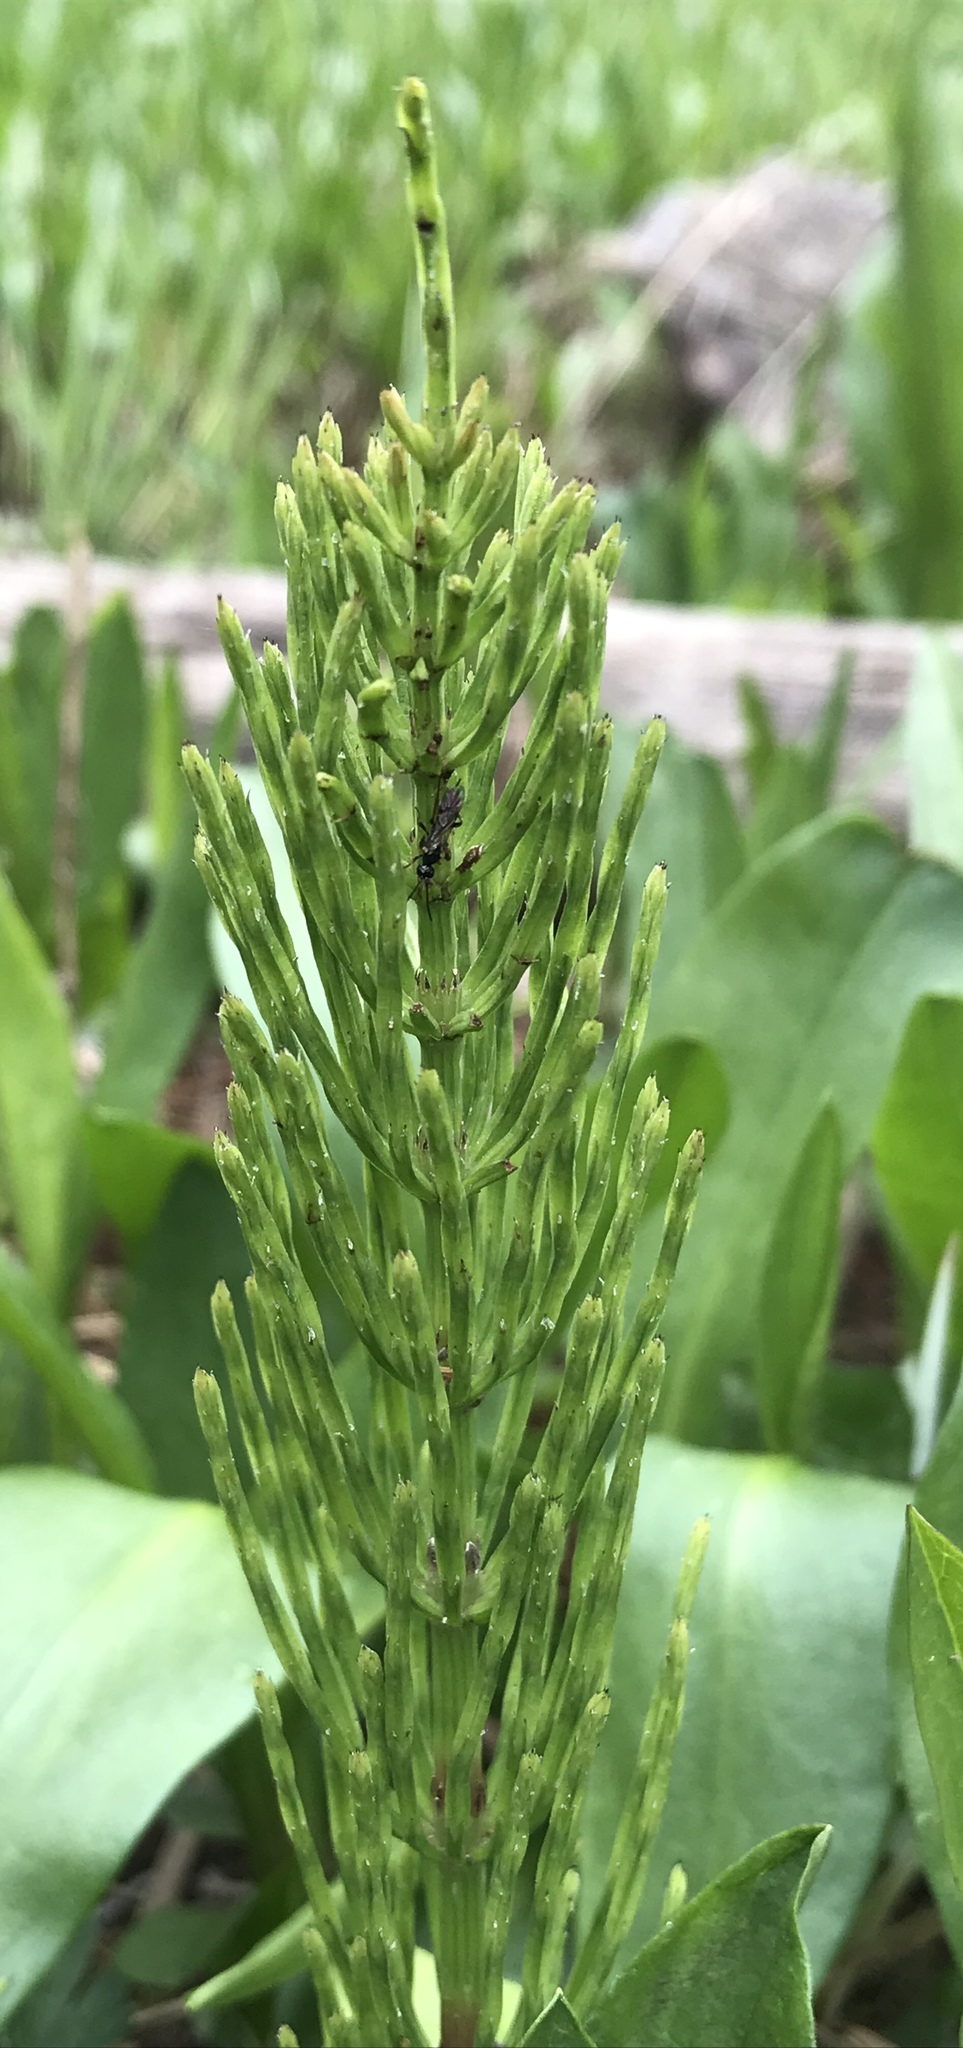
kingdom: Plantae
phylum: Tracheophyta
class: Polypodiopsida
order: Equisetales
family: Equisetaceae
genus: Equisetum
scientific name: Equisetum arvense
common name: Field horsetail
